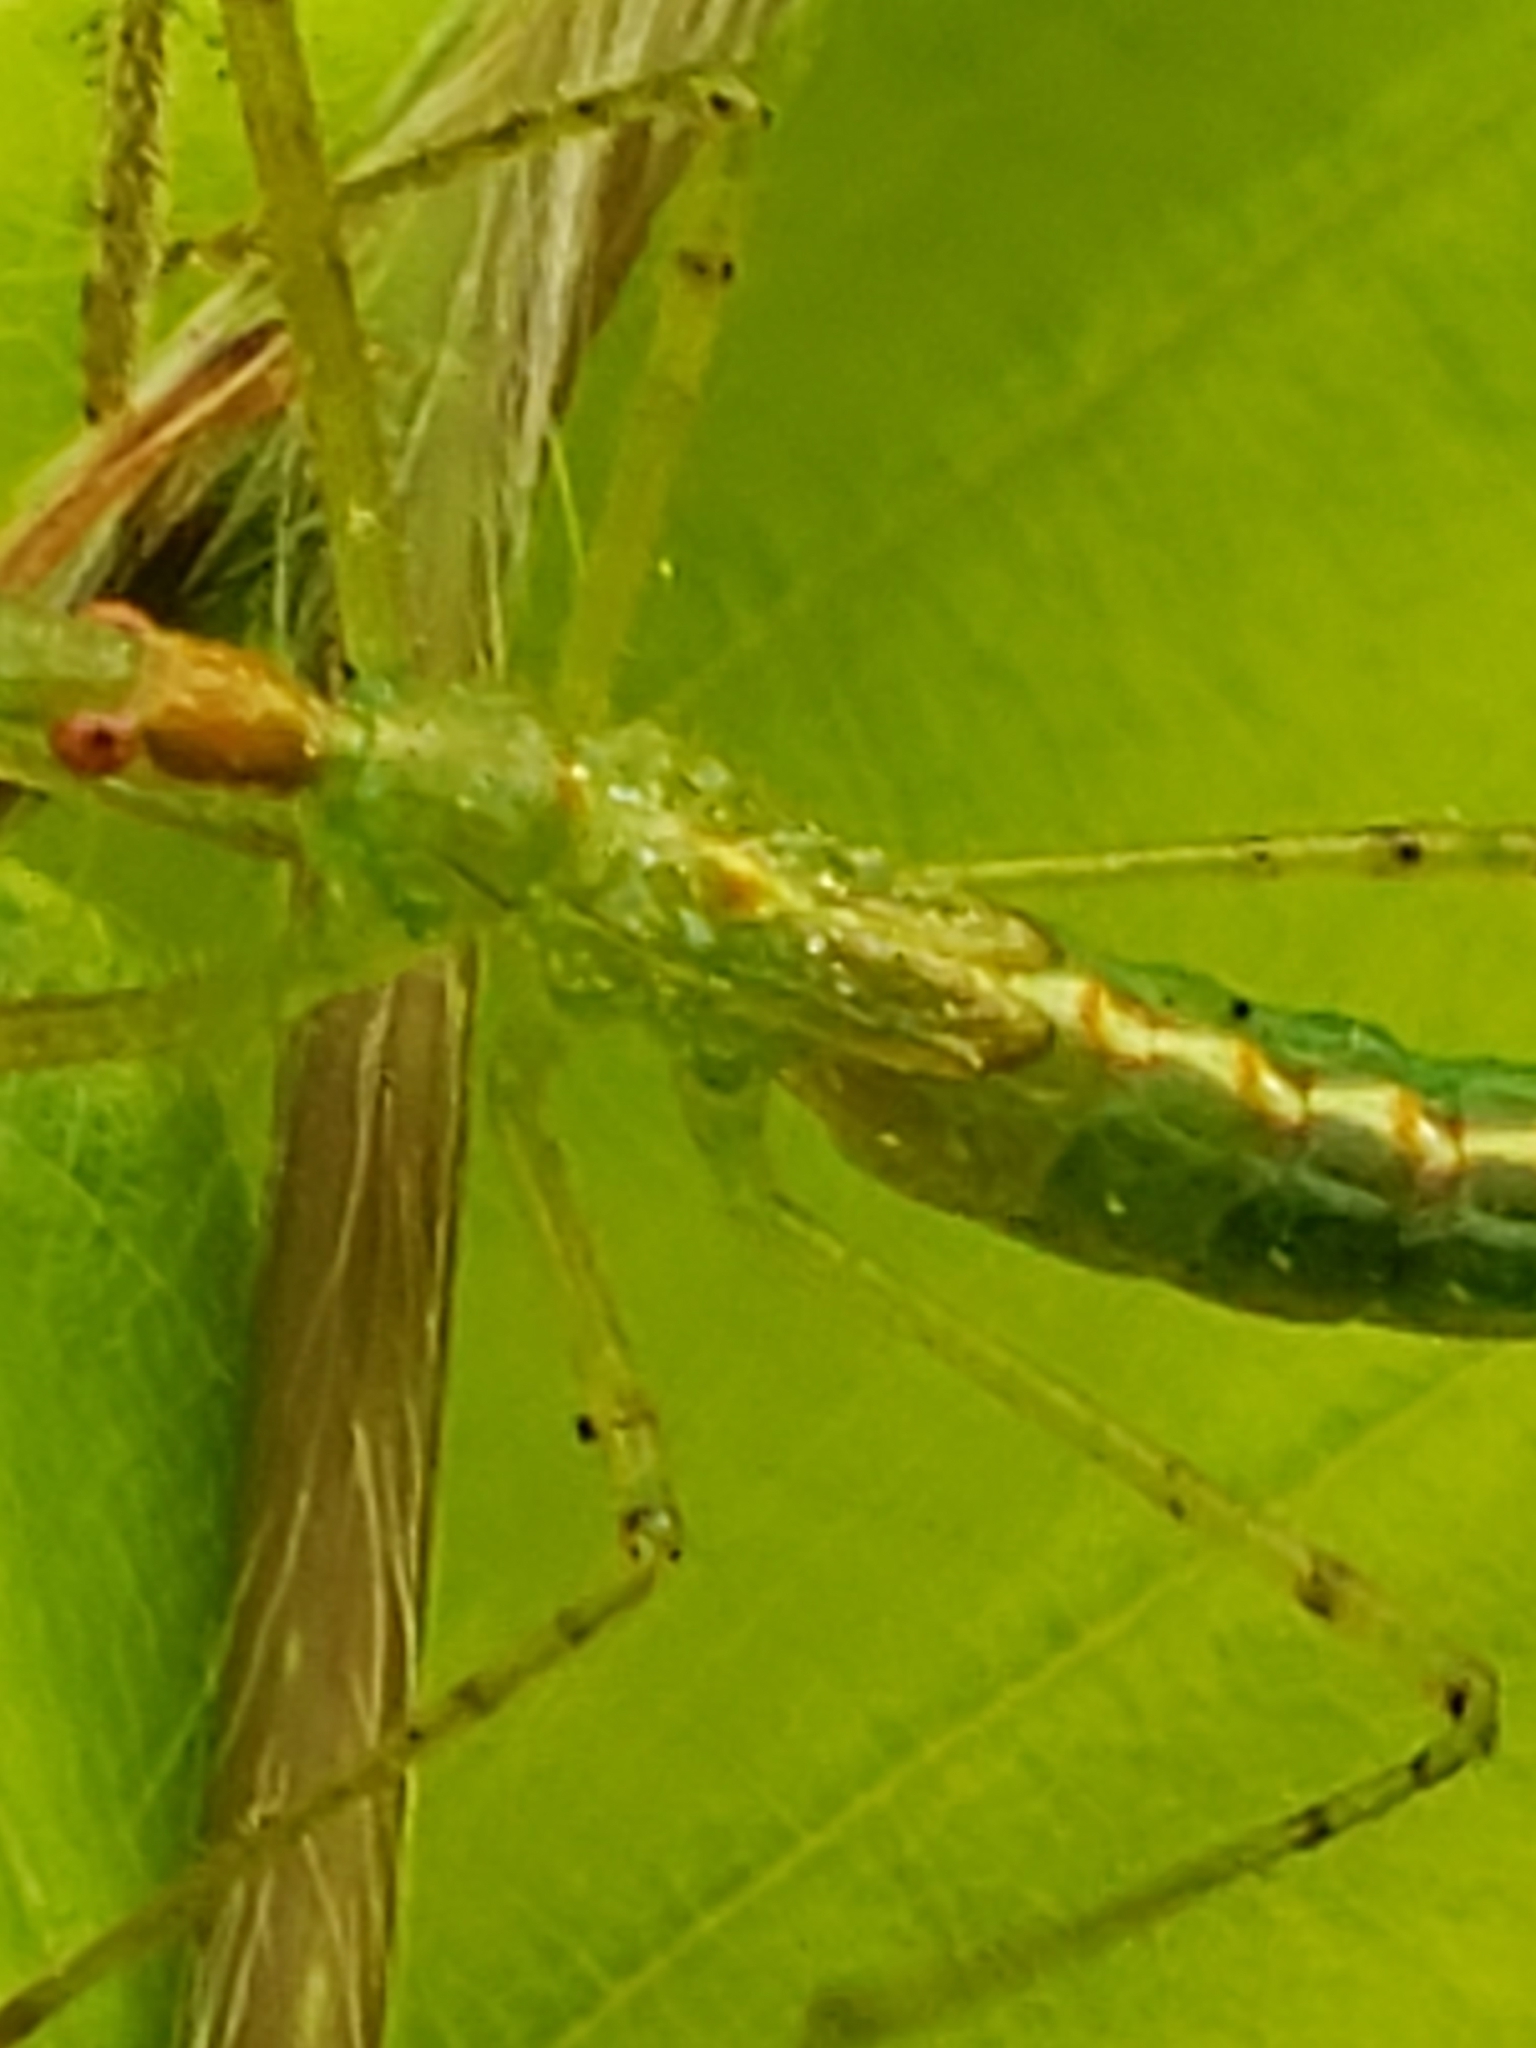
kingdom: Animalia
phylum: Arthropoda
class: Insecta
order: Hemiptera
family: Reduviidae
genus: Zelus
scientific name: Zelus luridus
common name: Pale green assassin bug
